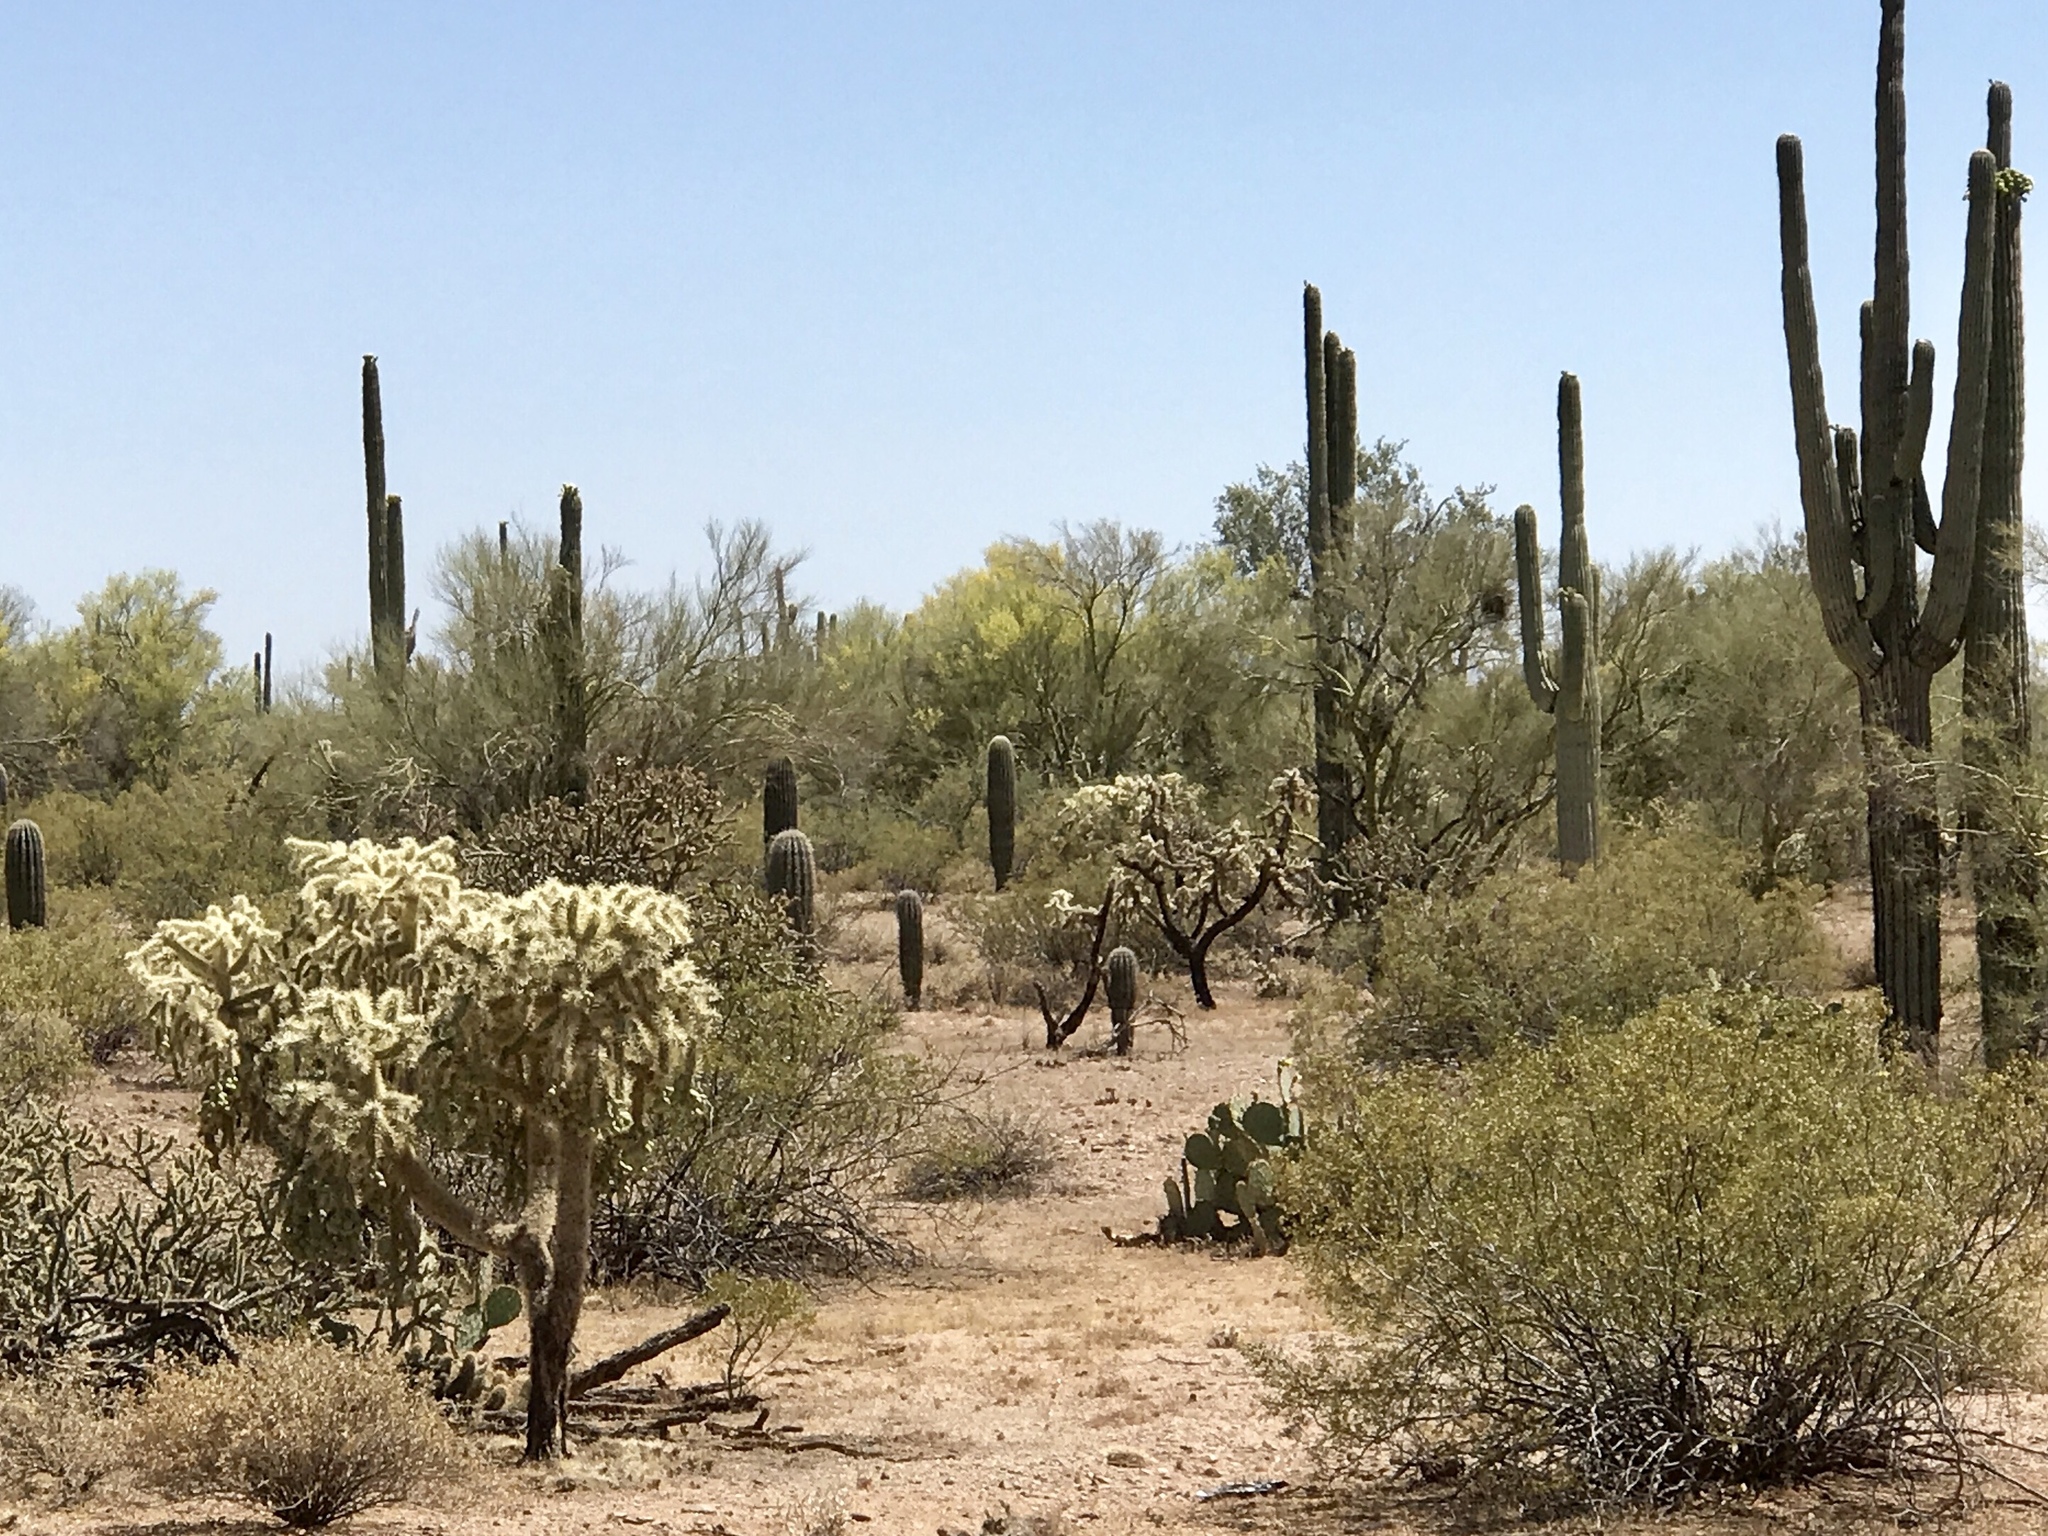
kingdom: Plantae
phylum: Tracheophyta
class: Magnoliopsida
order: Caryophyllales
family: Cactaceae
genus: Carnegiea
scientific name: Carnegiea gigantea
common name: Saguaro
